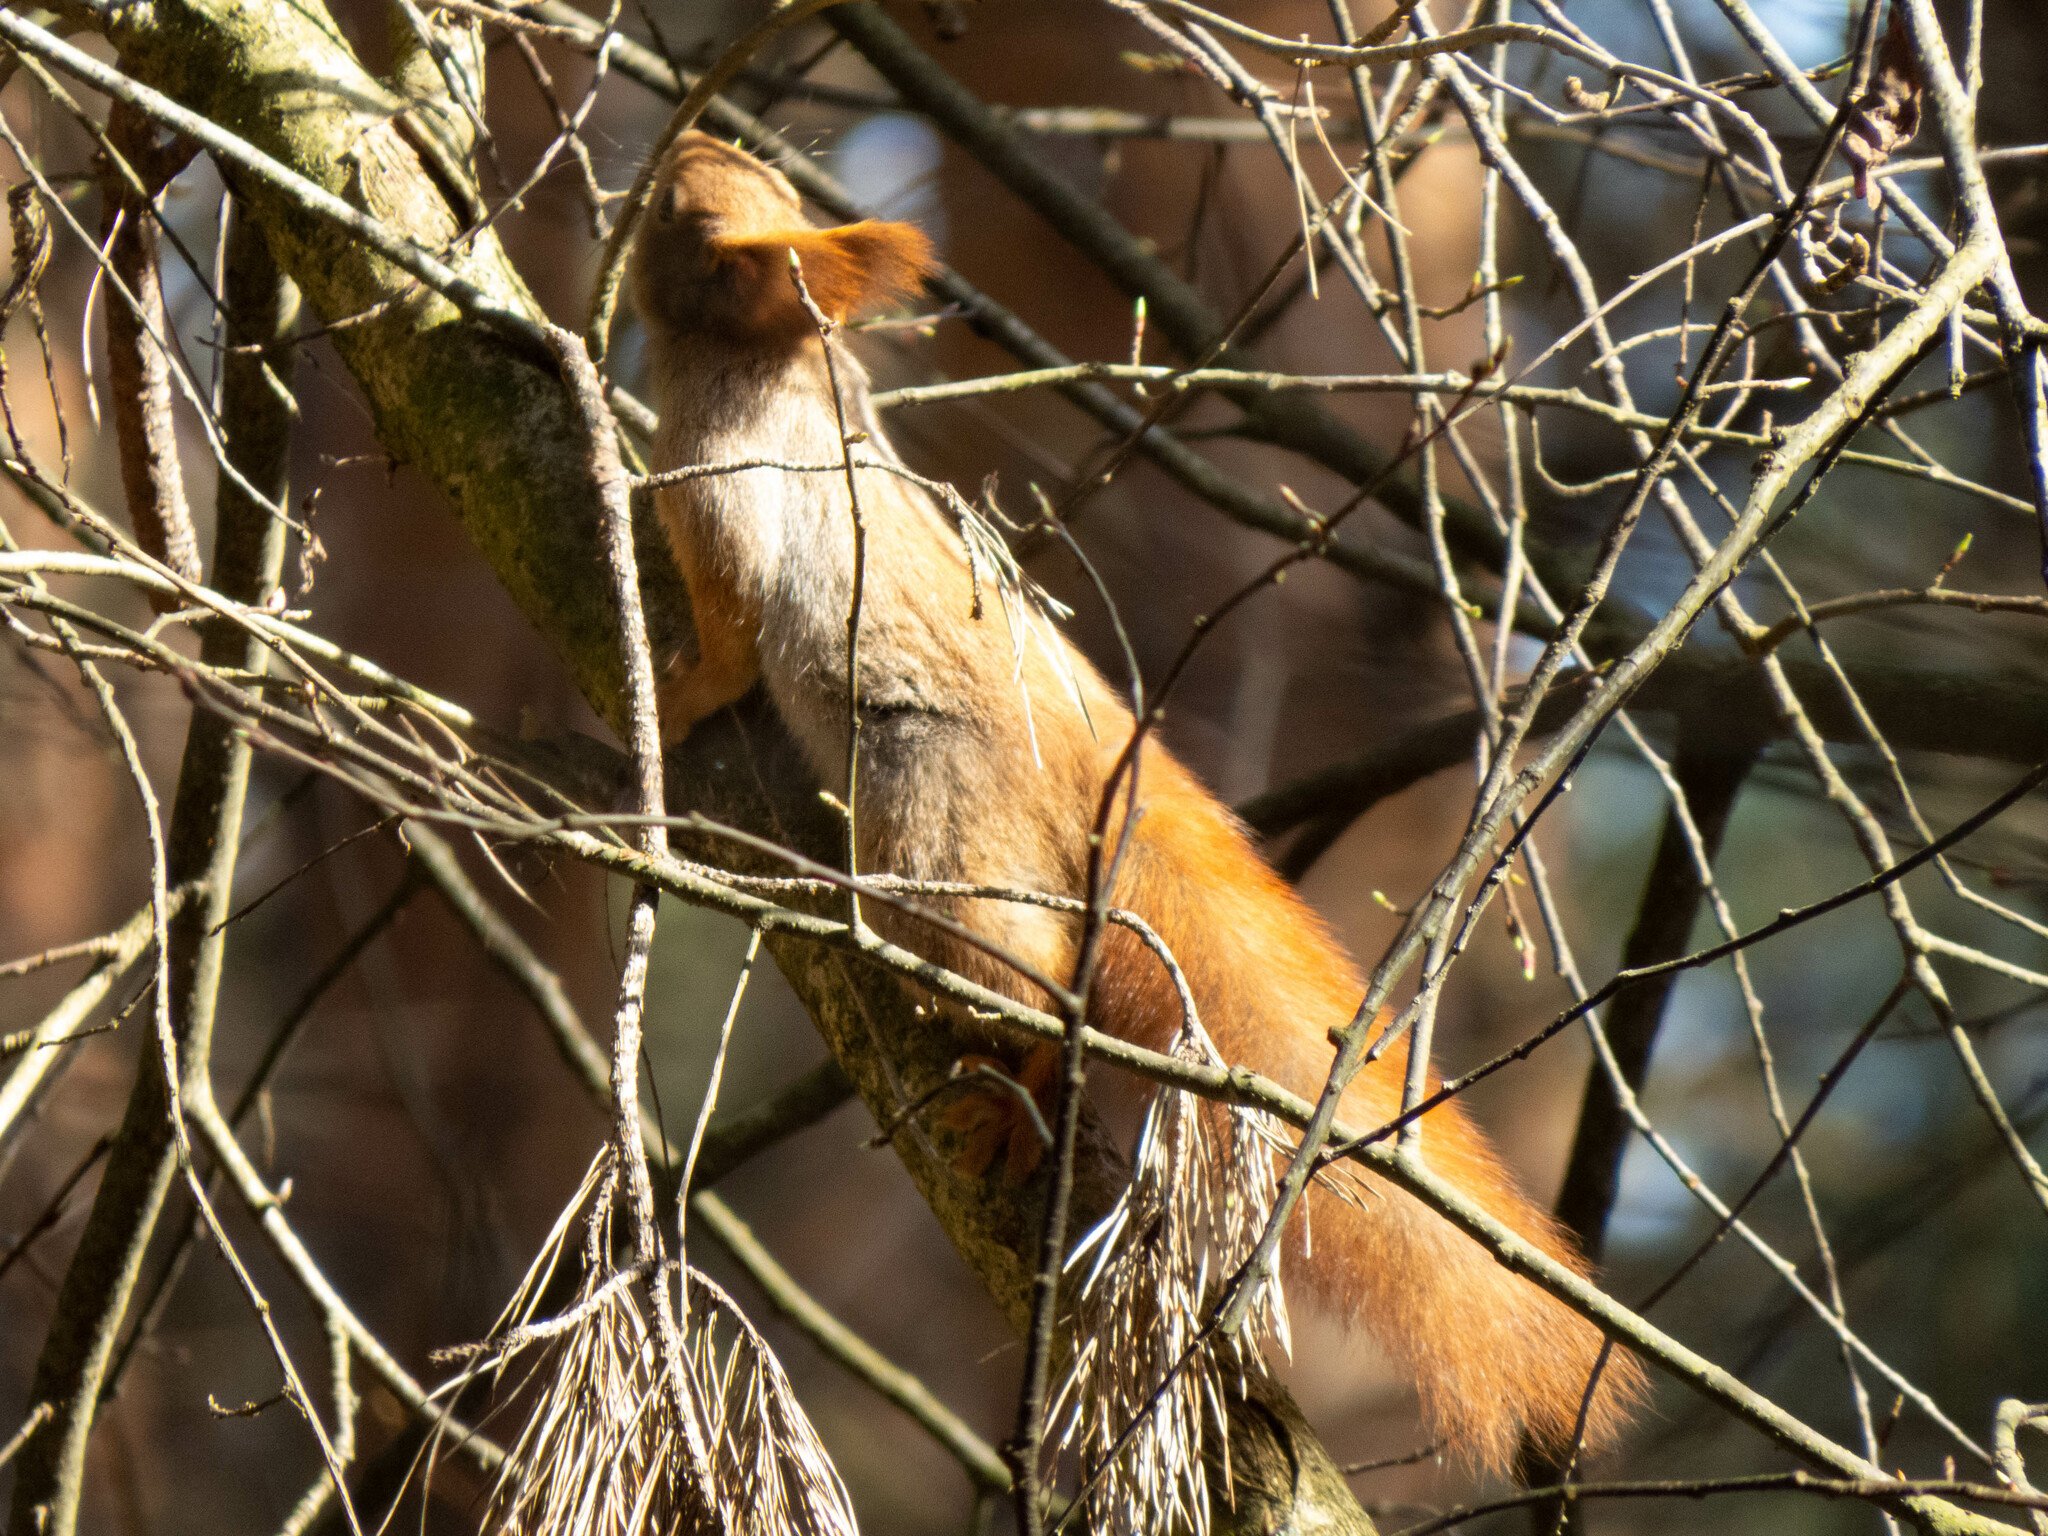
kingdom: Animalia
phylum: Chordata
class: Mammalia
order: Rodentia
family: Sciuridae
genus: Sciurus
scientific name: Sciurus vulgaris
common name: Eurasian red squirrel
